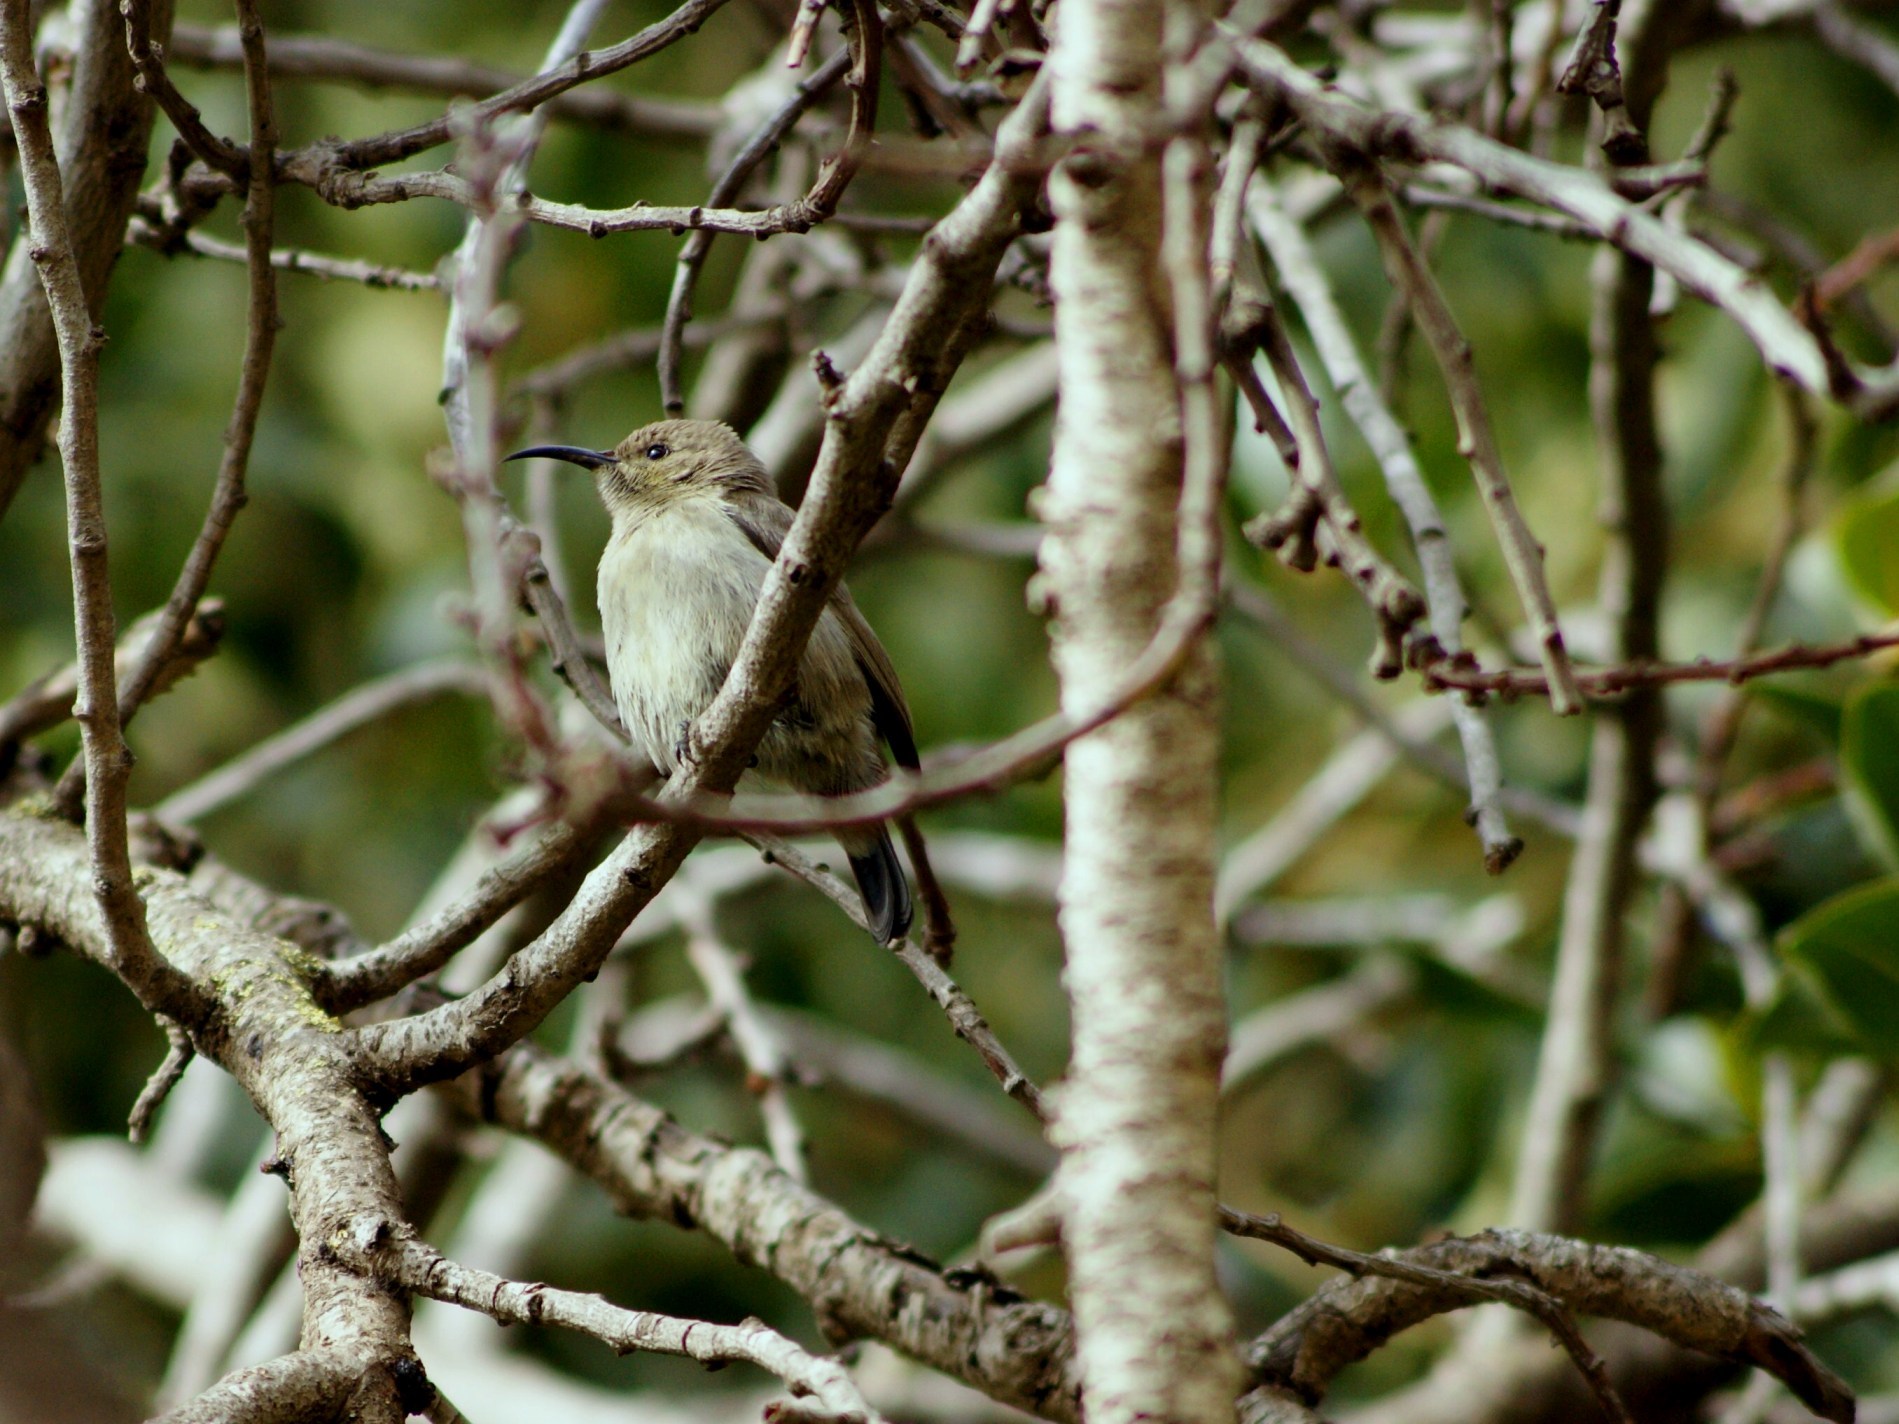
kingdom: Animalia
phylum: Chordata
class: Aves
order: Passeriformes
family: Nectariniidae
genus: Cinnyris
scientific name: Cinnyris osea
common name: Palestine sunbird
